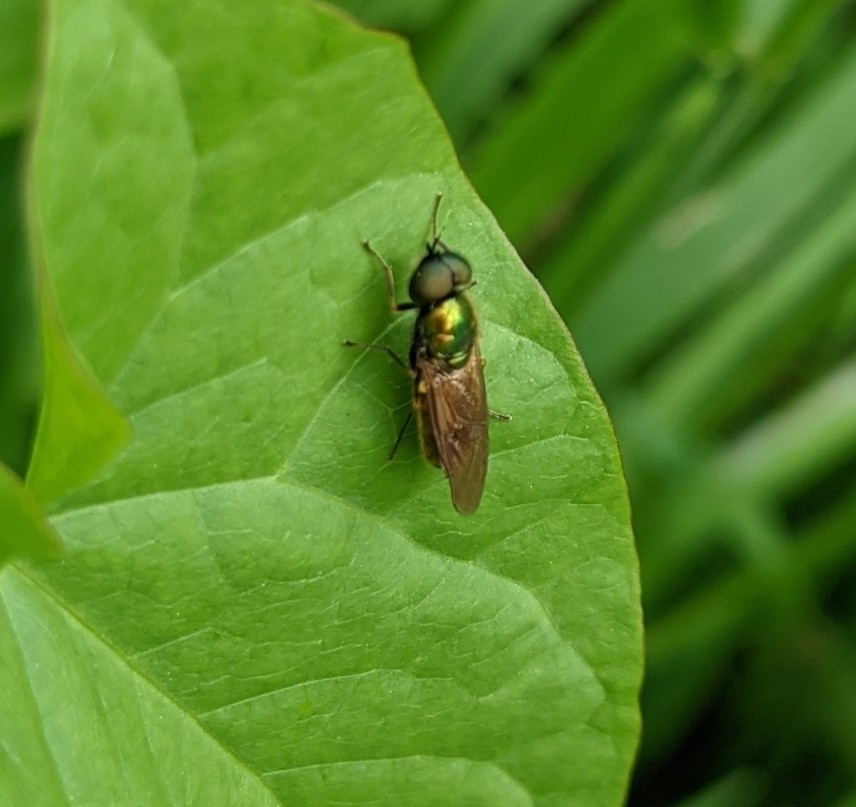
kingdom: Animalia
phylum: Arthropoda
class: Insecta
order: Diptera
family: Stratiomyidae
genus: Chloromyia
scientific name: Chloromyia formosa
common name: Soldier fly
